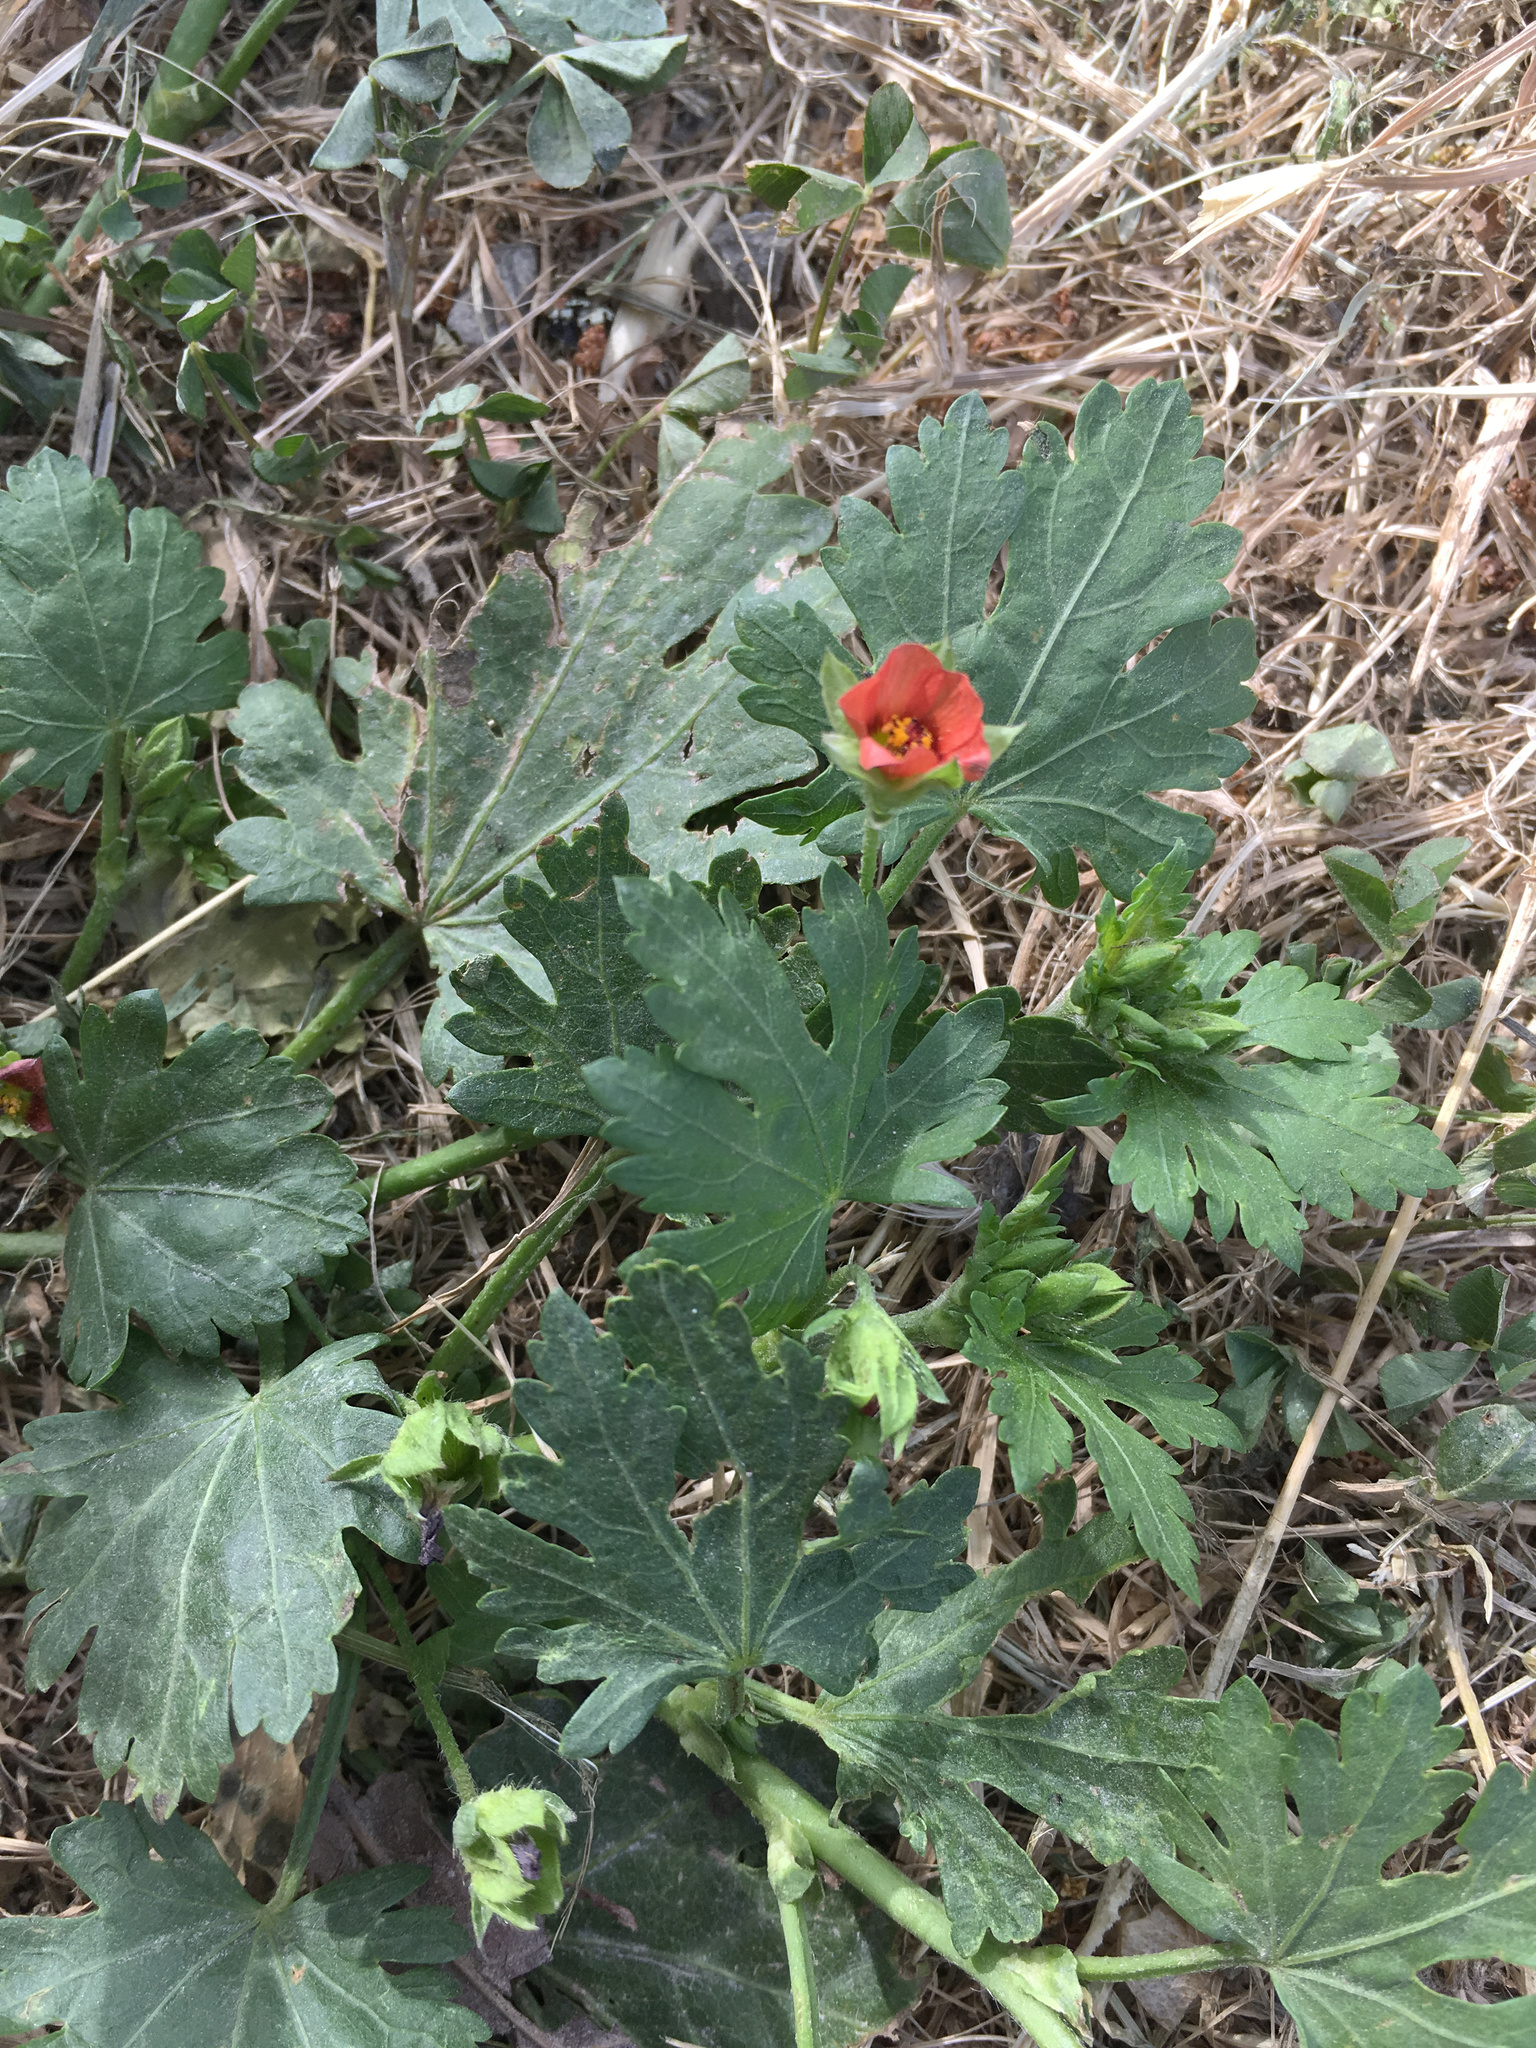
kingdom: Plantae
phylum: Tracheophyta
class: Magnoliopsida
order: Malvales
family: Malvaceae
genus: Modiola
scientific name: Modiola caroliniana
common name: Carolina bristlemallow
